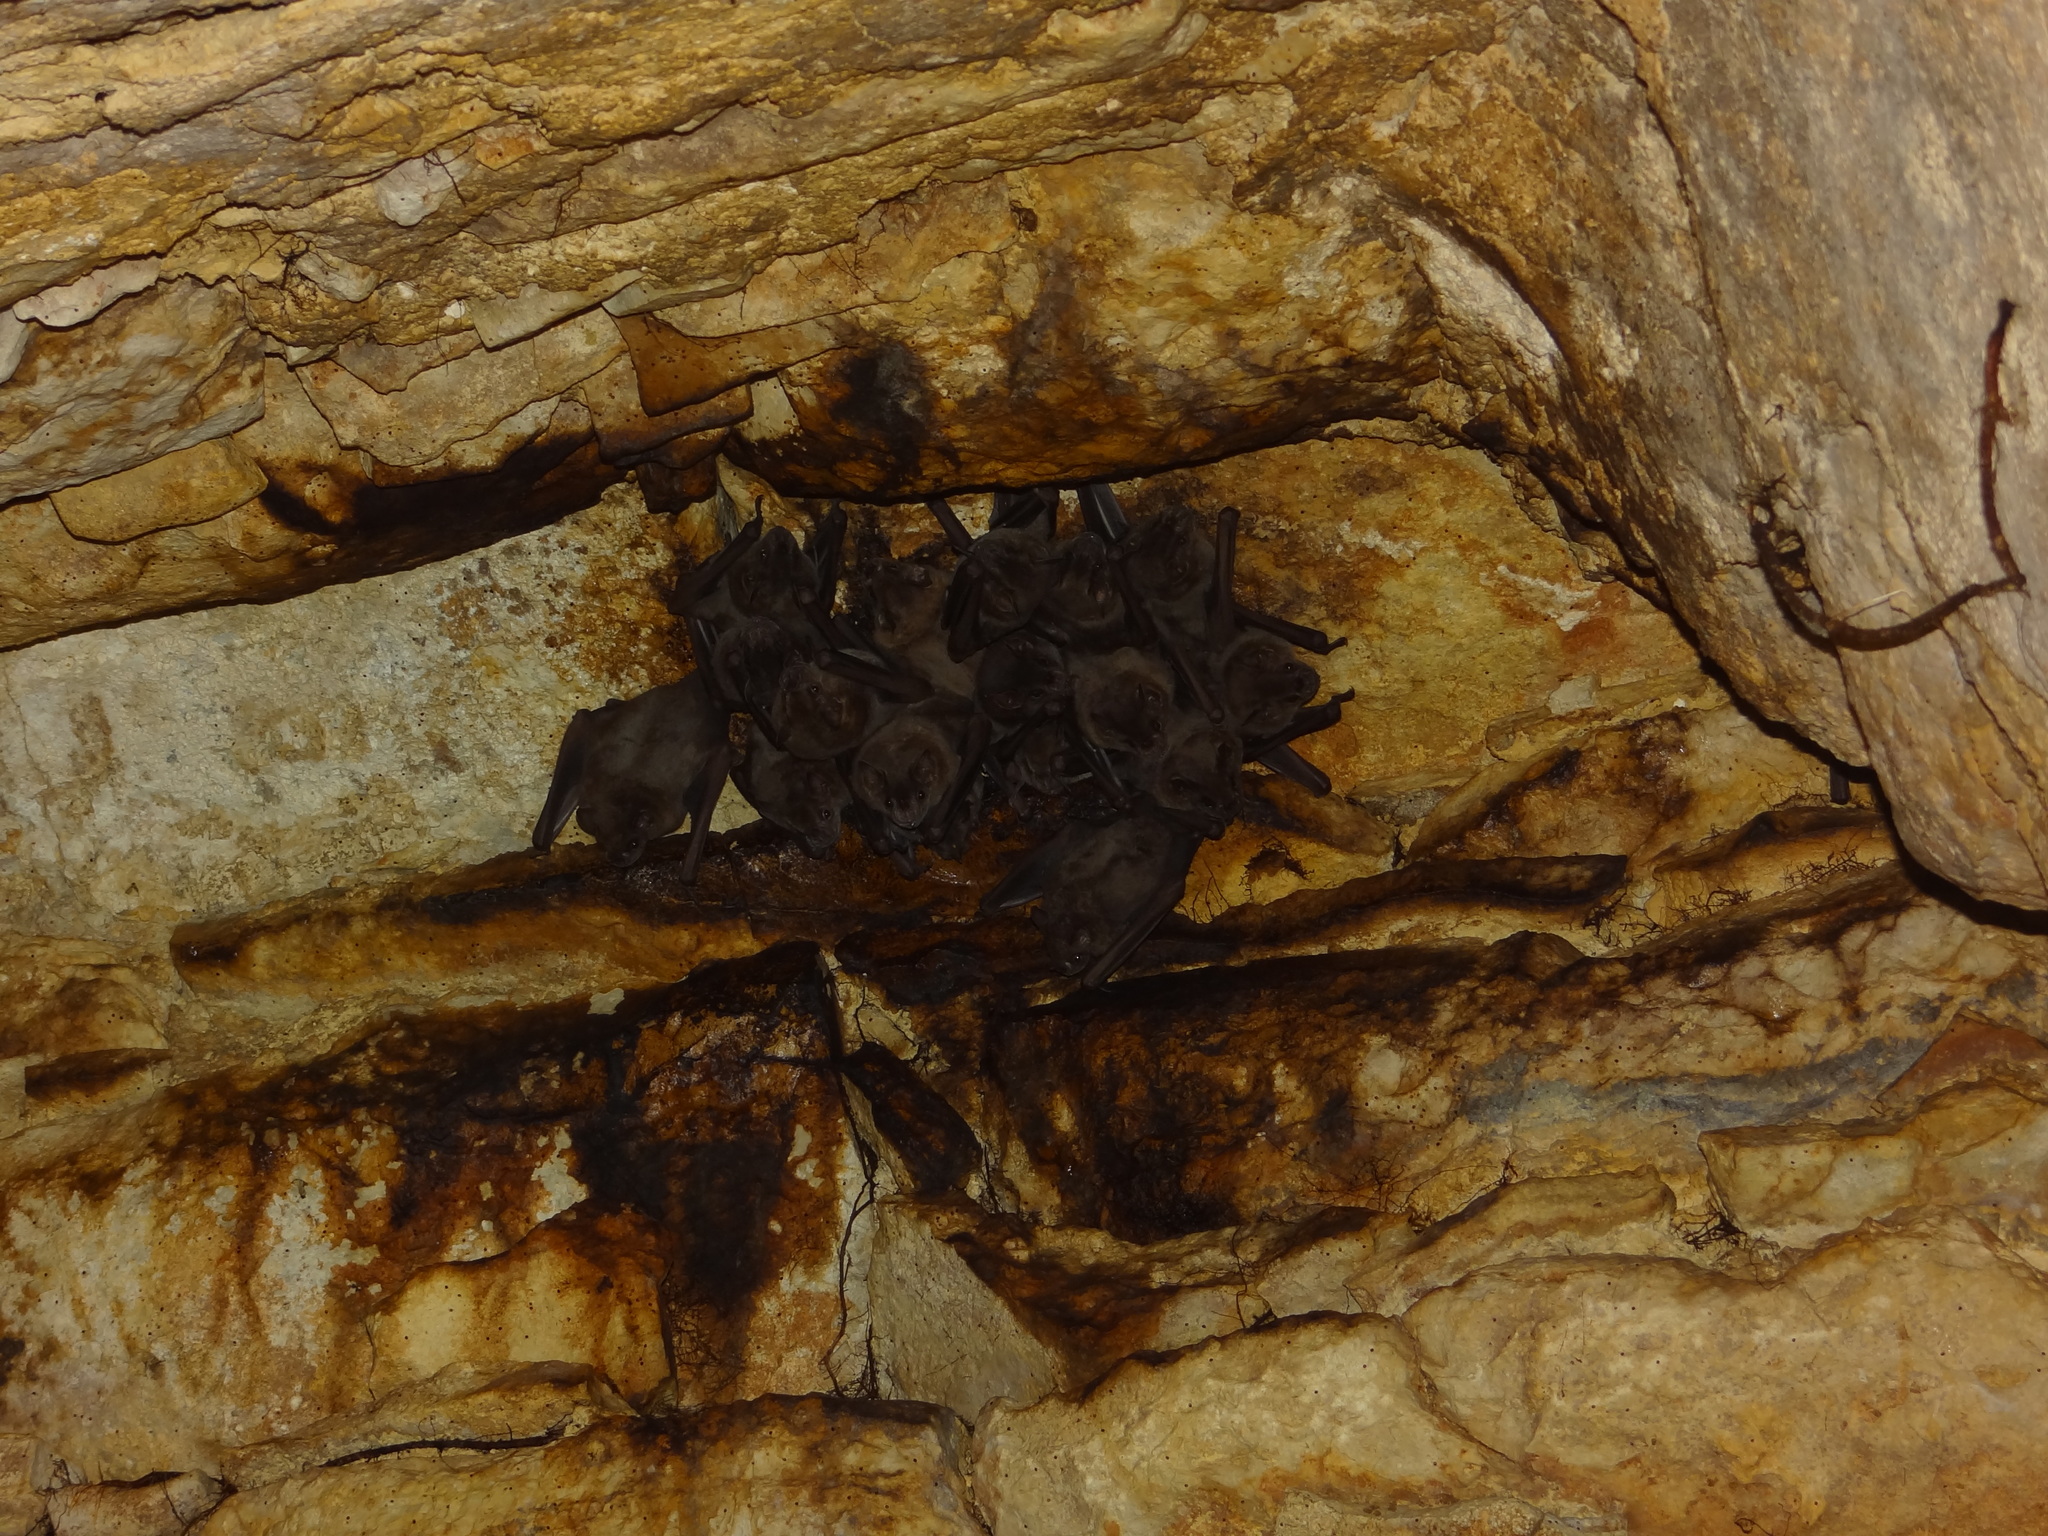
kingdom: Animalia
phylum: Chordata
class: Mammalia
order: Chiroptera
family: Phyllostomidae
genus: Artibeus
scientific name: Artibeus jamaicensis
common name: Jamaican fruit-eating bat
